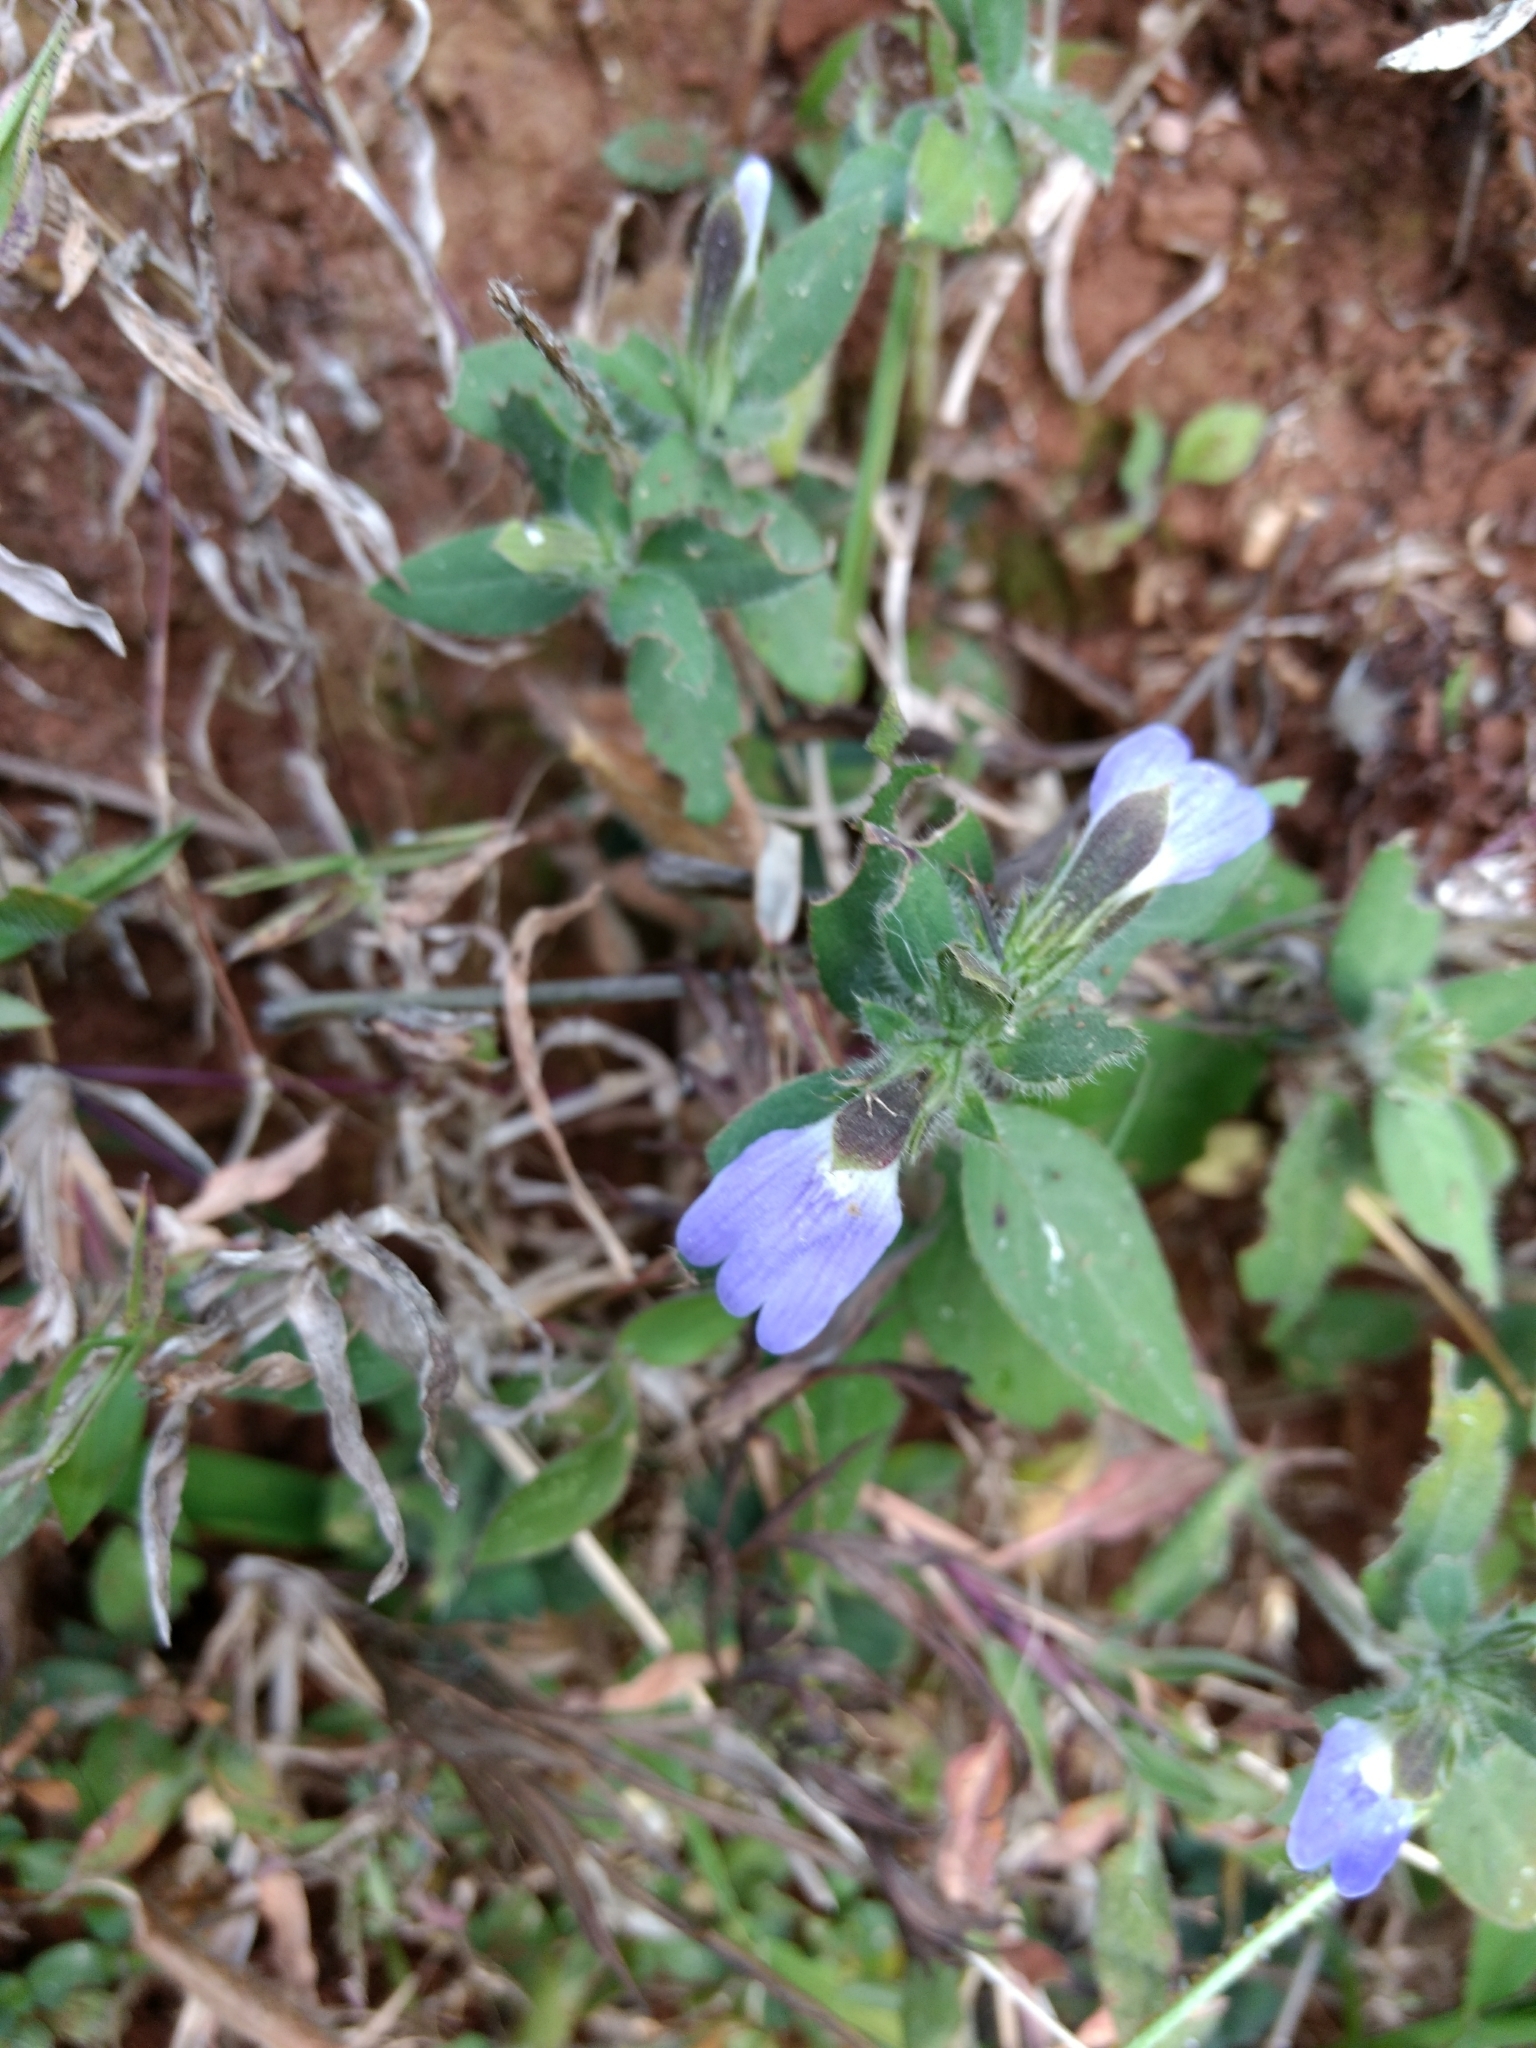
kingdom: Plantae
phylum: Tracheophyta
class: Magnoliopsida
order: Lamiales
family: Acanthaceae
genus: Cynarospermum
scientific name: Cynarospermum asperrimum
